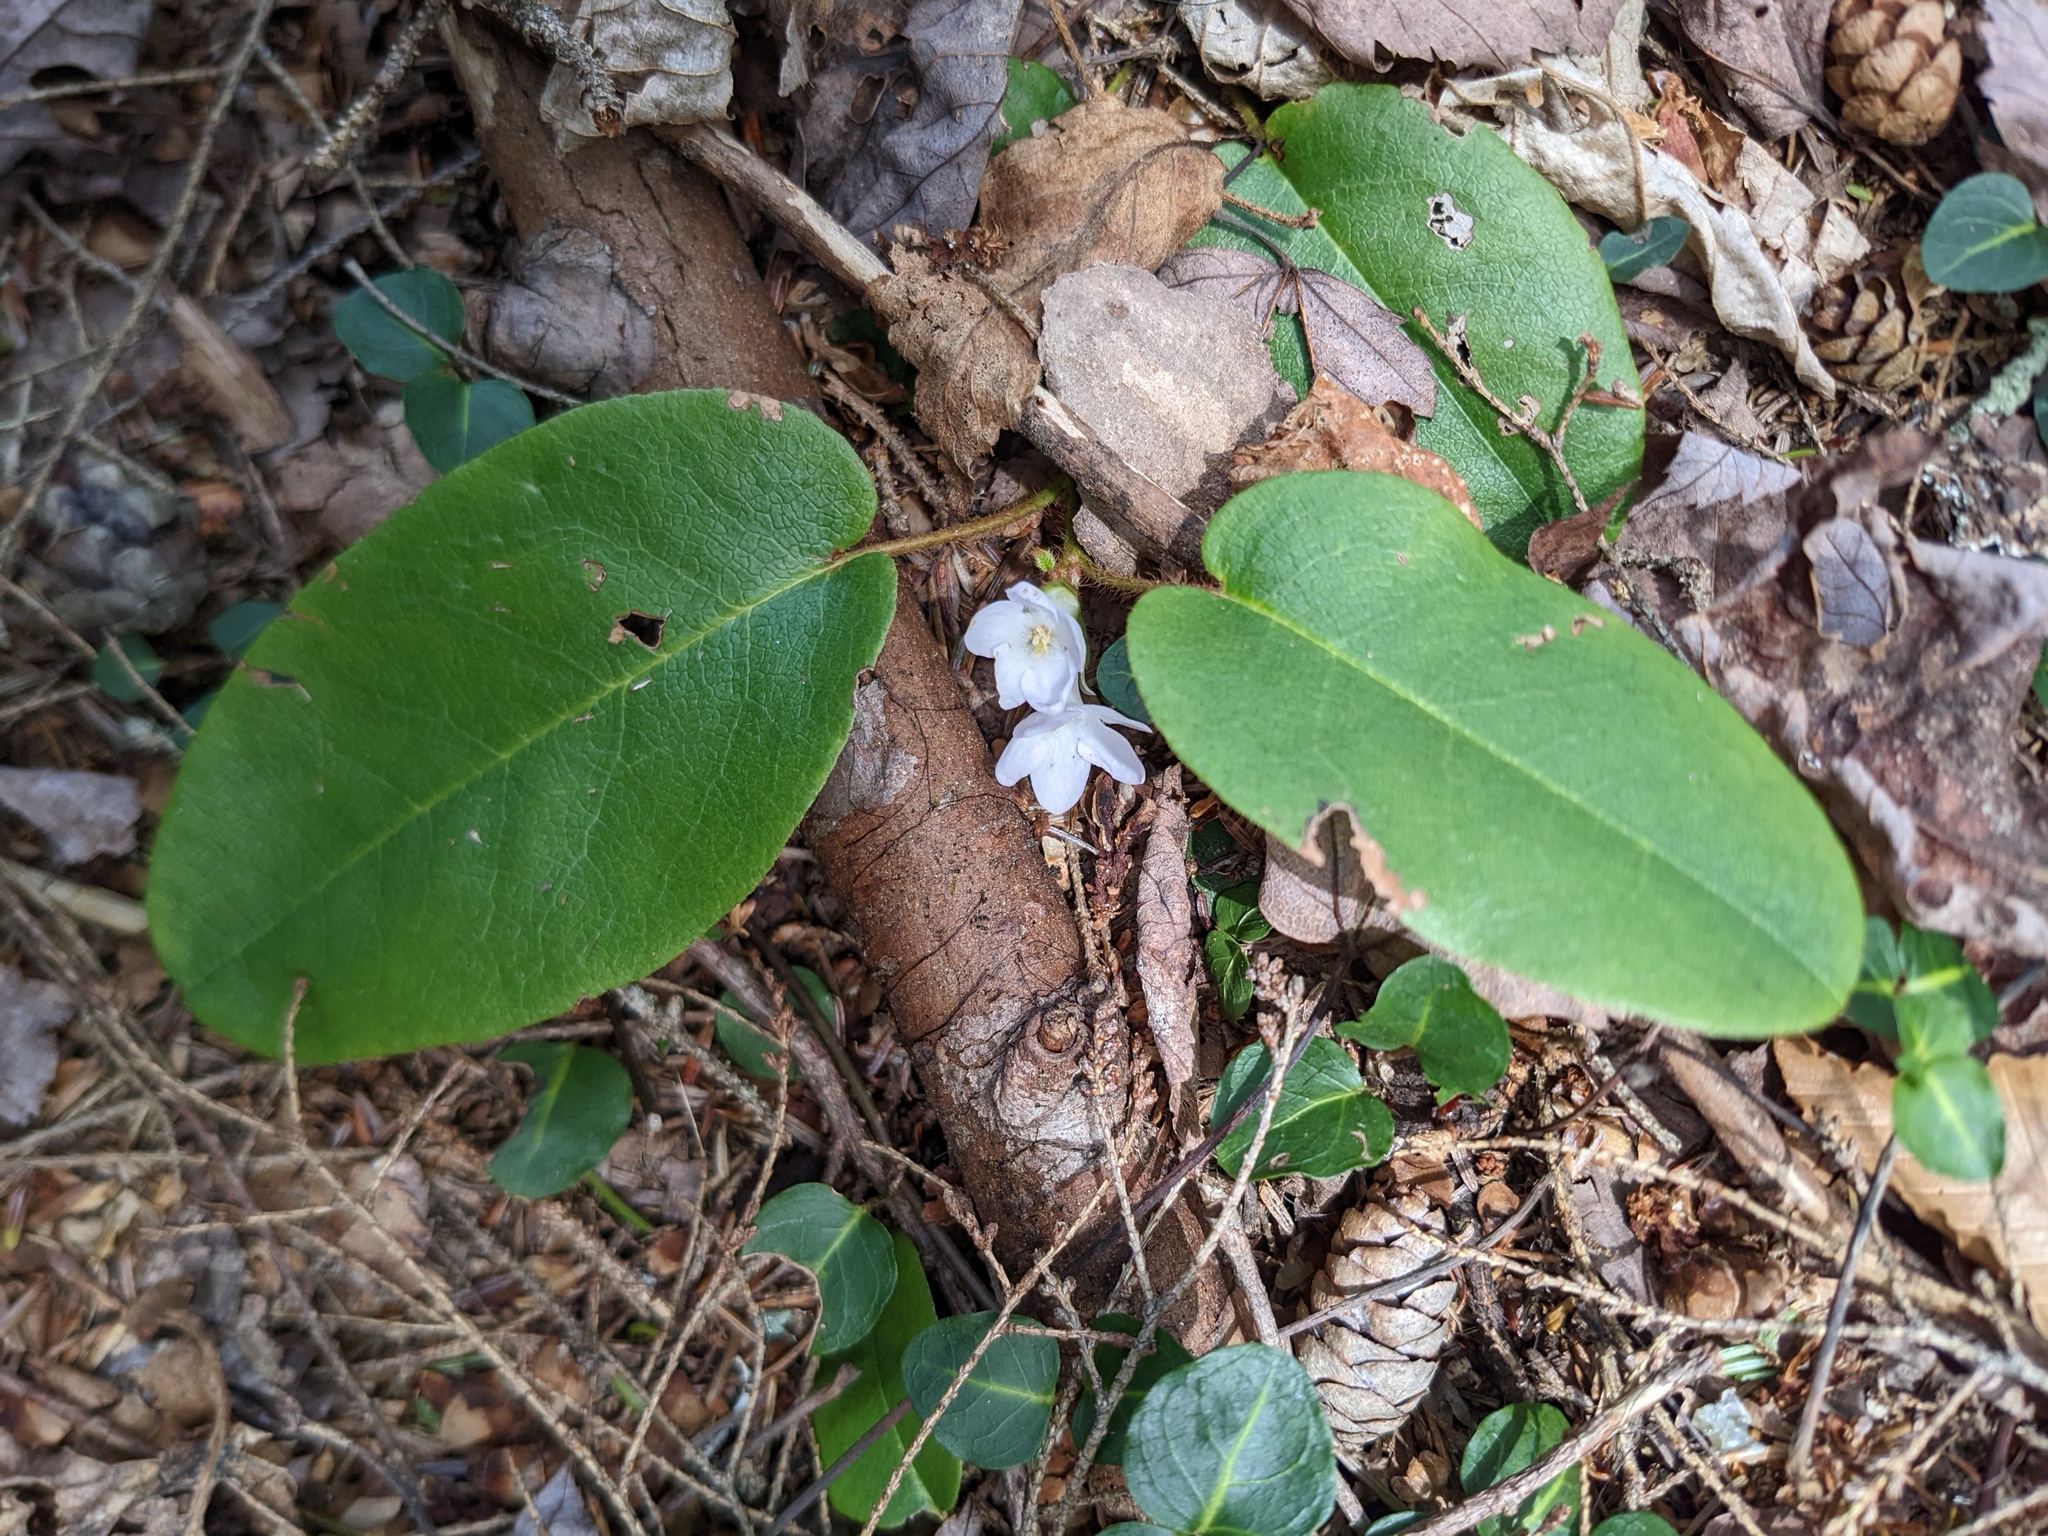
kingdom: Plantae
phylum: Tracheophyta
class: Magnoliopsida
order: Ericales
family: Ericaceae
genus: Epigaea
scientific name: Epigaea repens
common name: Gravelroot
